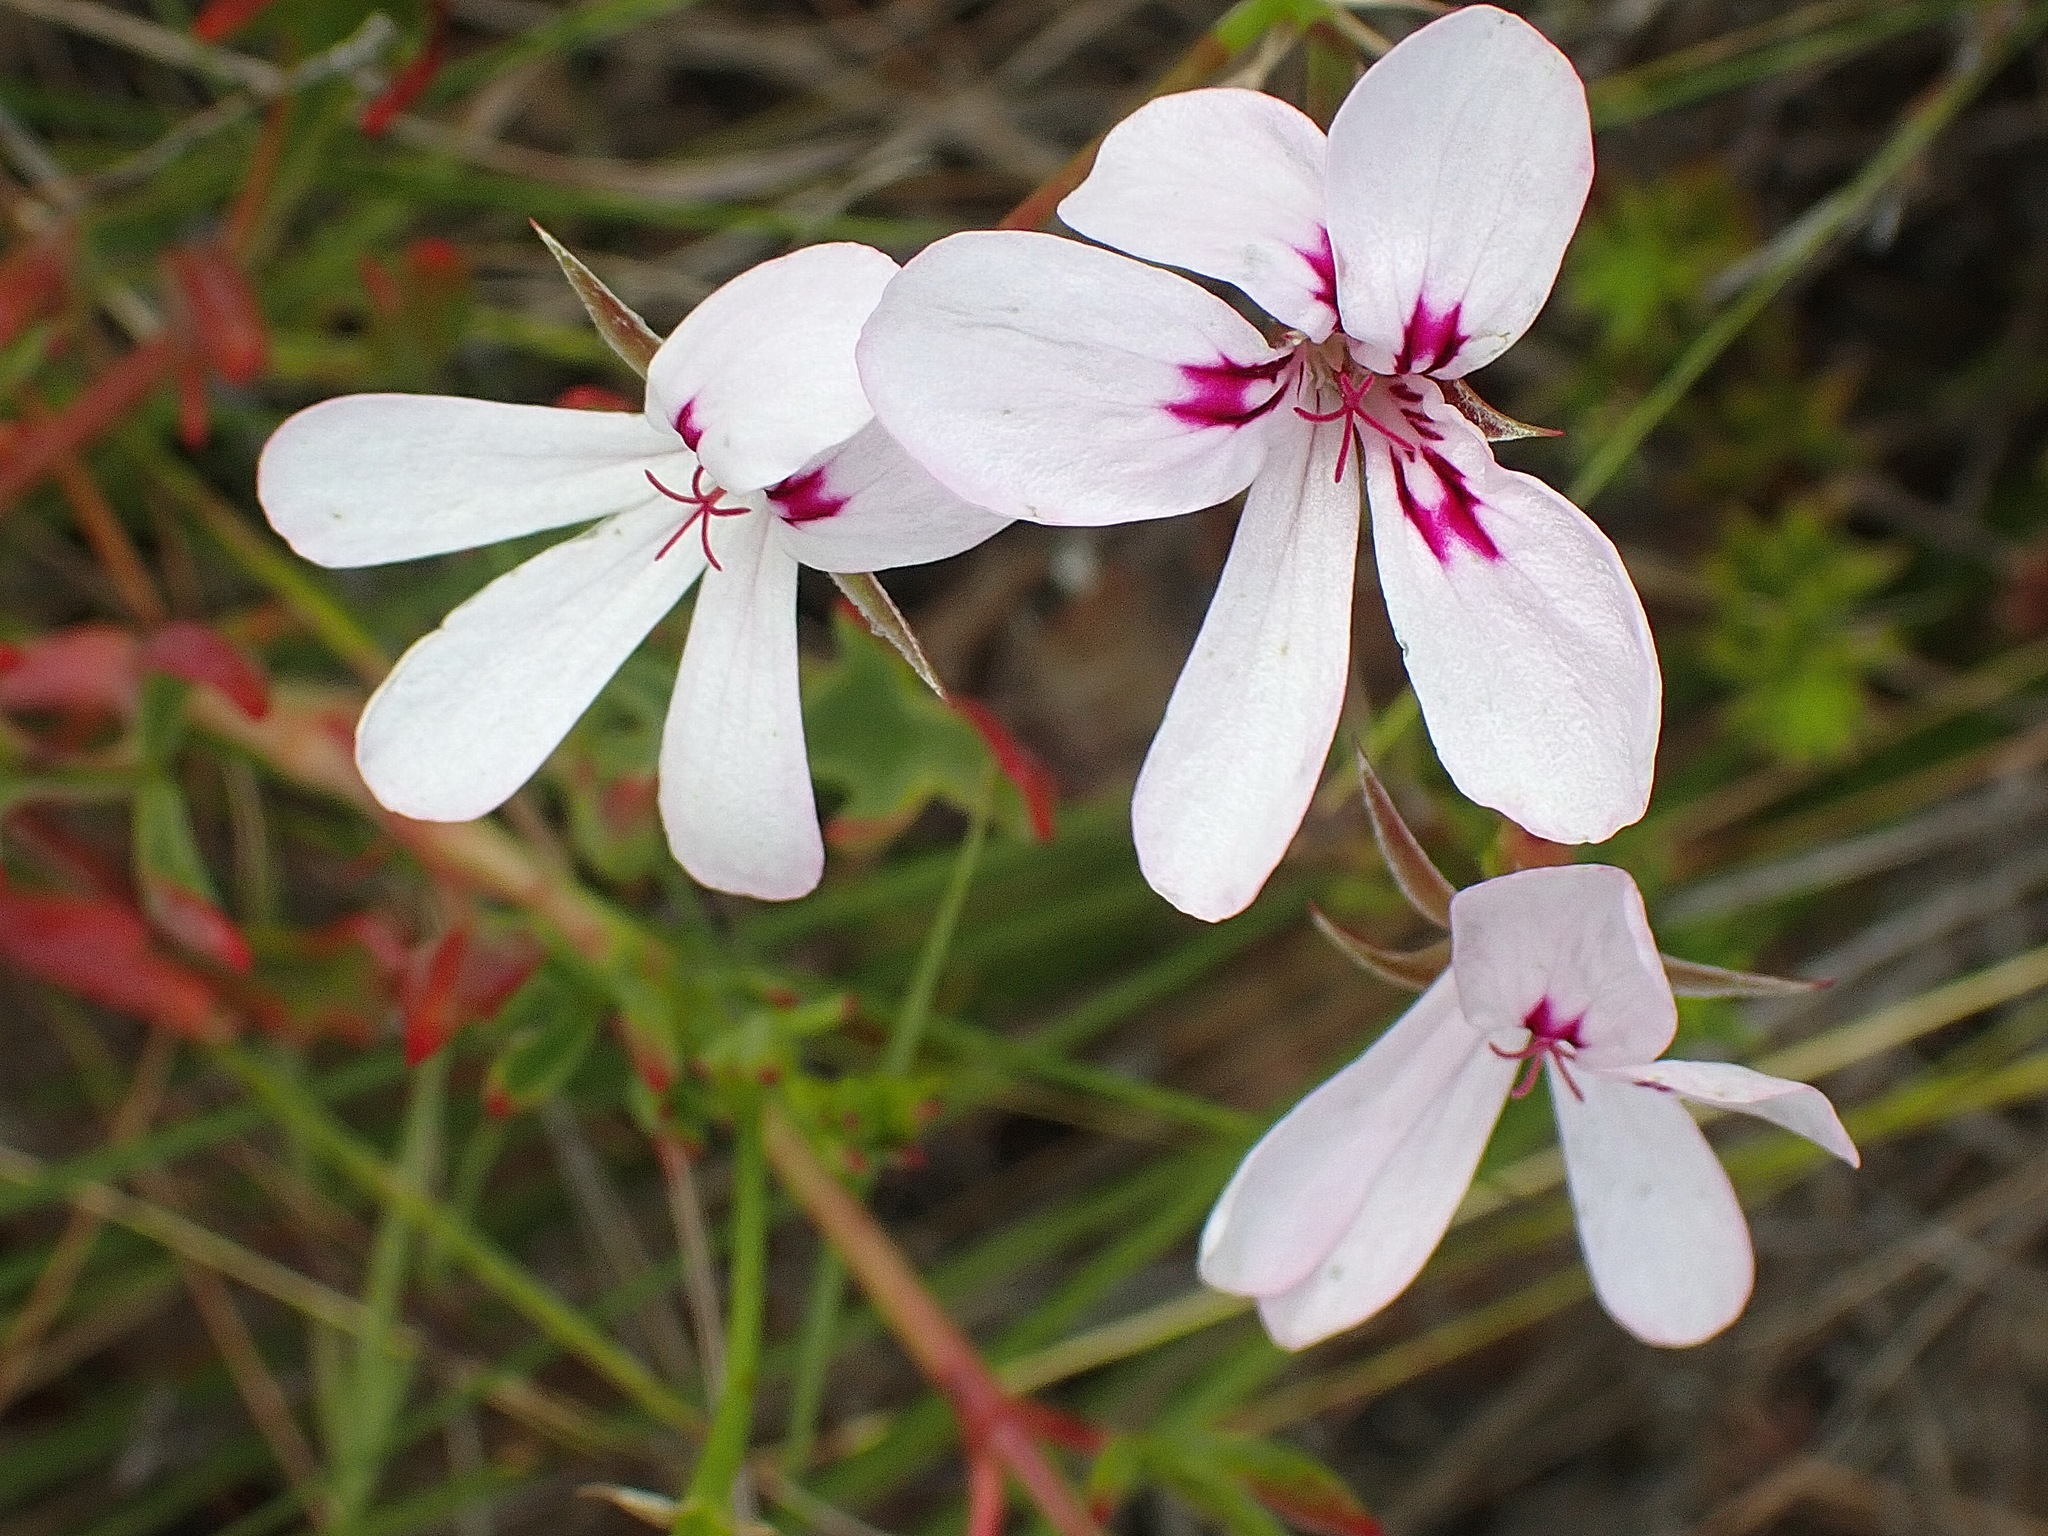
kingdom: Plantae
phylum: Tracheophyta
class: Magnoliopsida
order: Geraniales
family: Geraniaceae
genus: Pelargonium
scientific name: Pelargonium laevigatum
